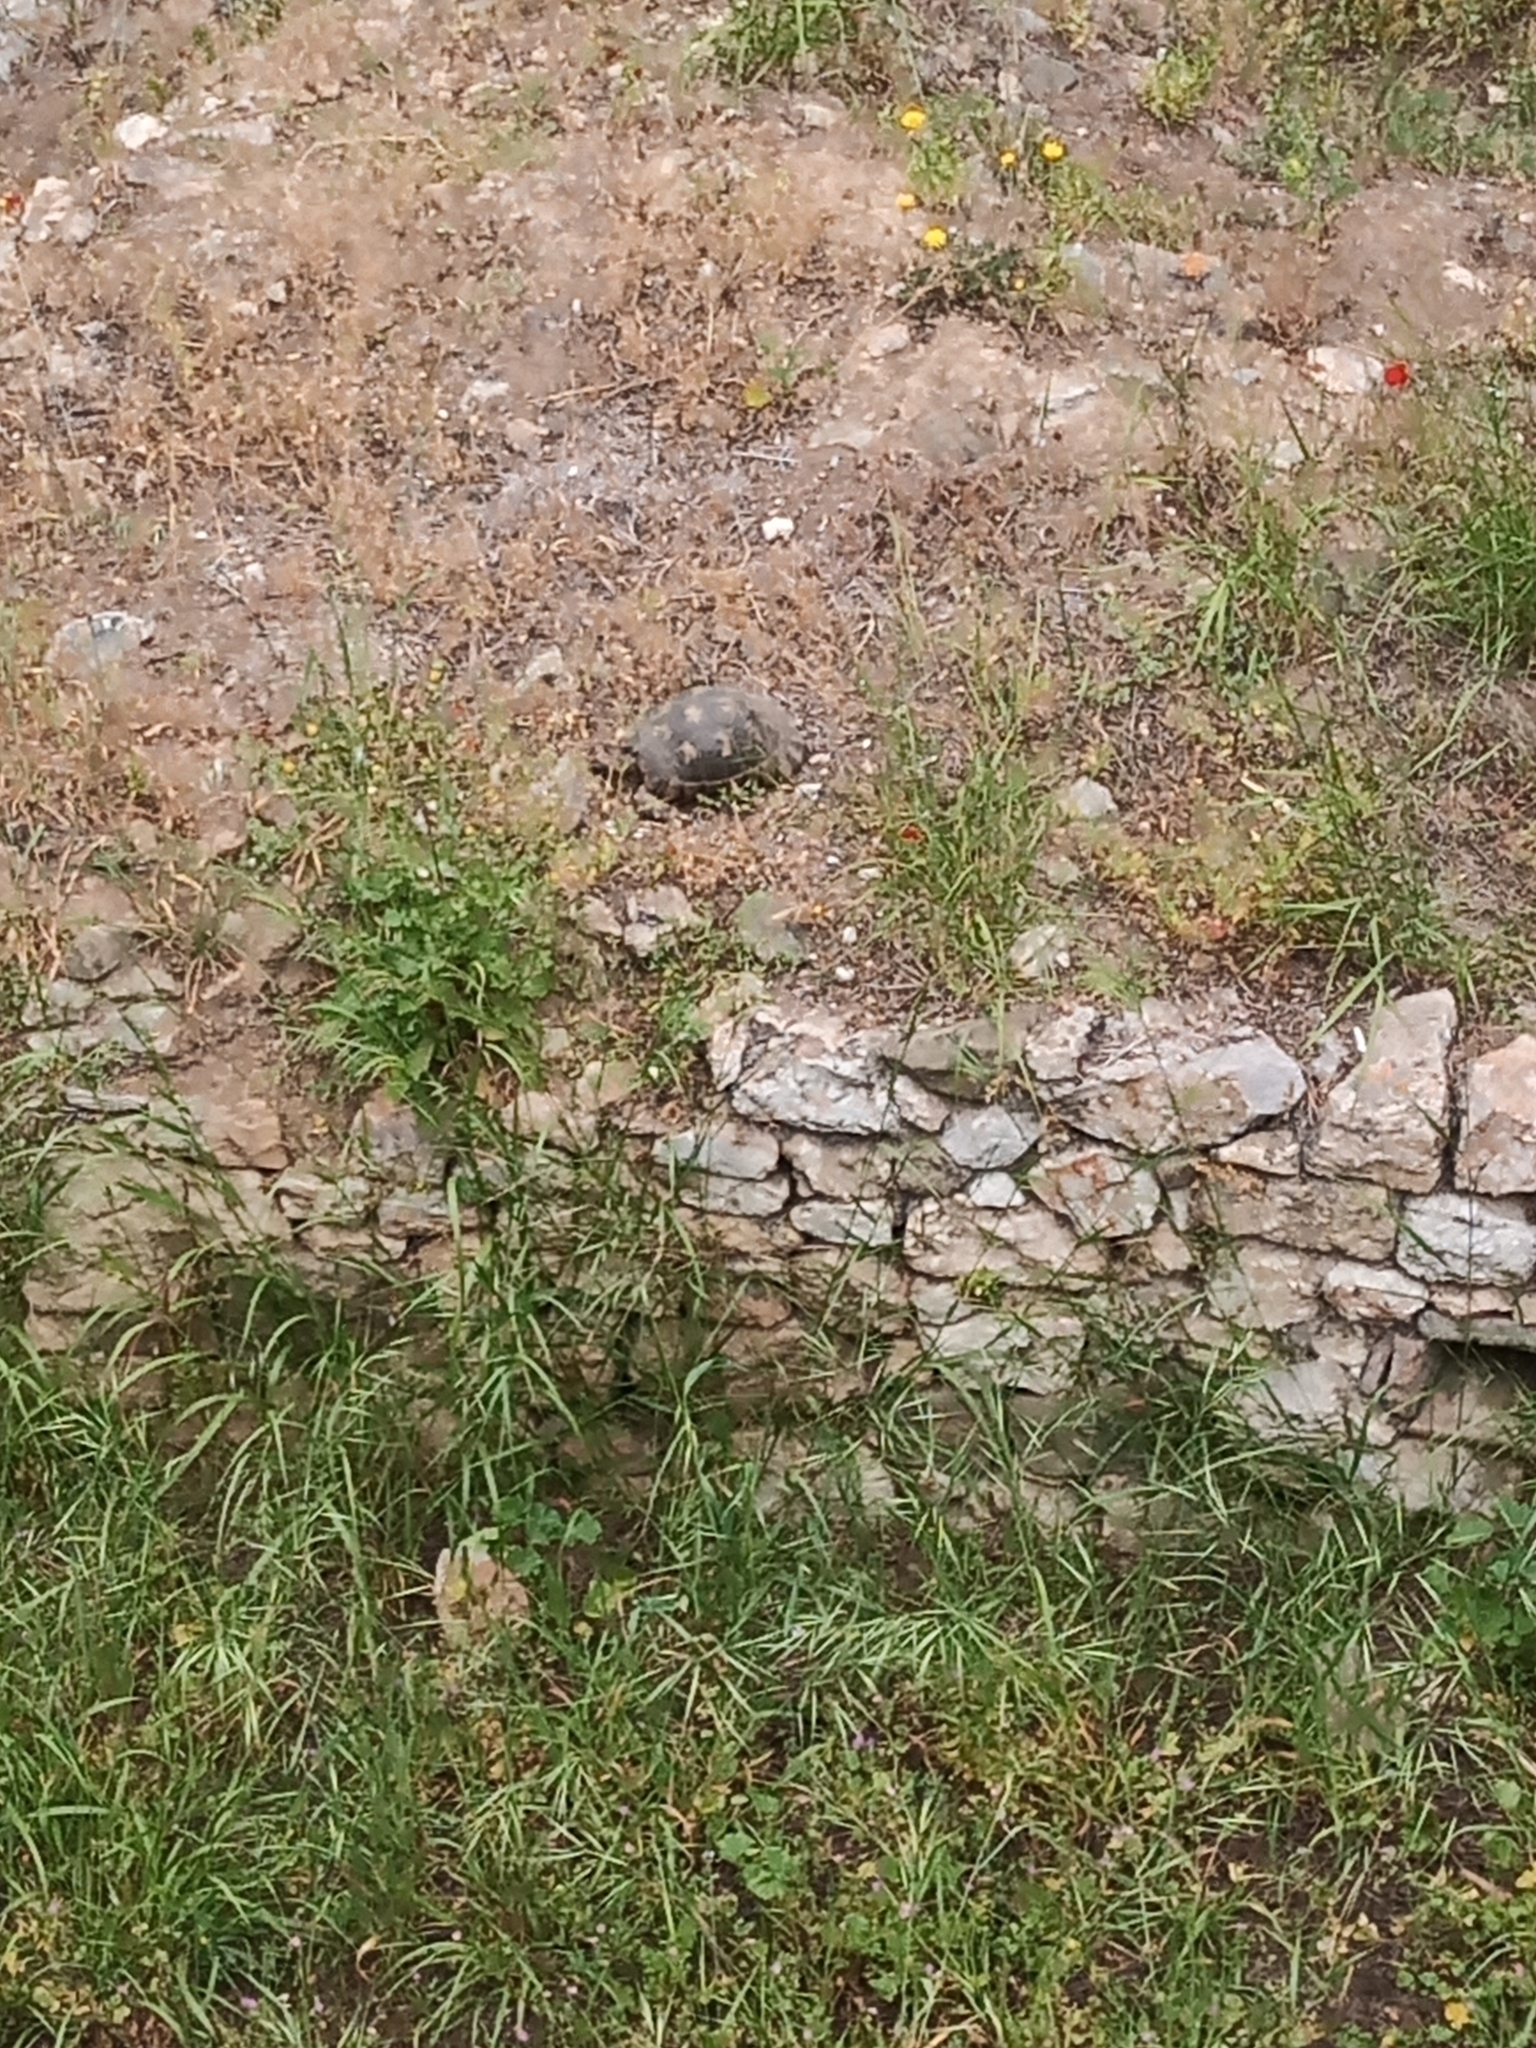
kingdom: Animalia
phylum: Chordata
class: Testudines
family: Testudinidae
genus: Testudo
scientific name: Testudo marginata
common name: Marginated tortoise
